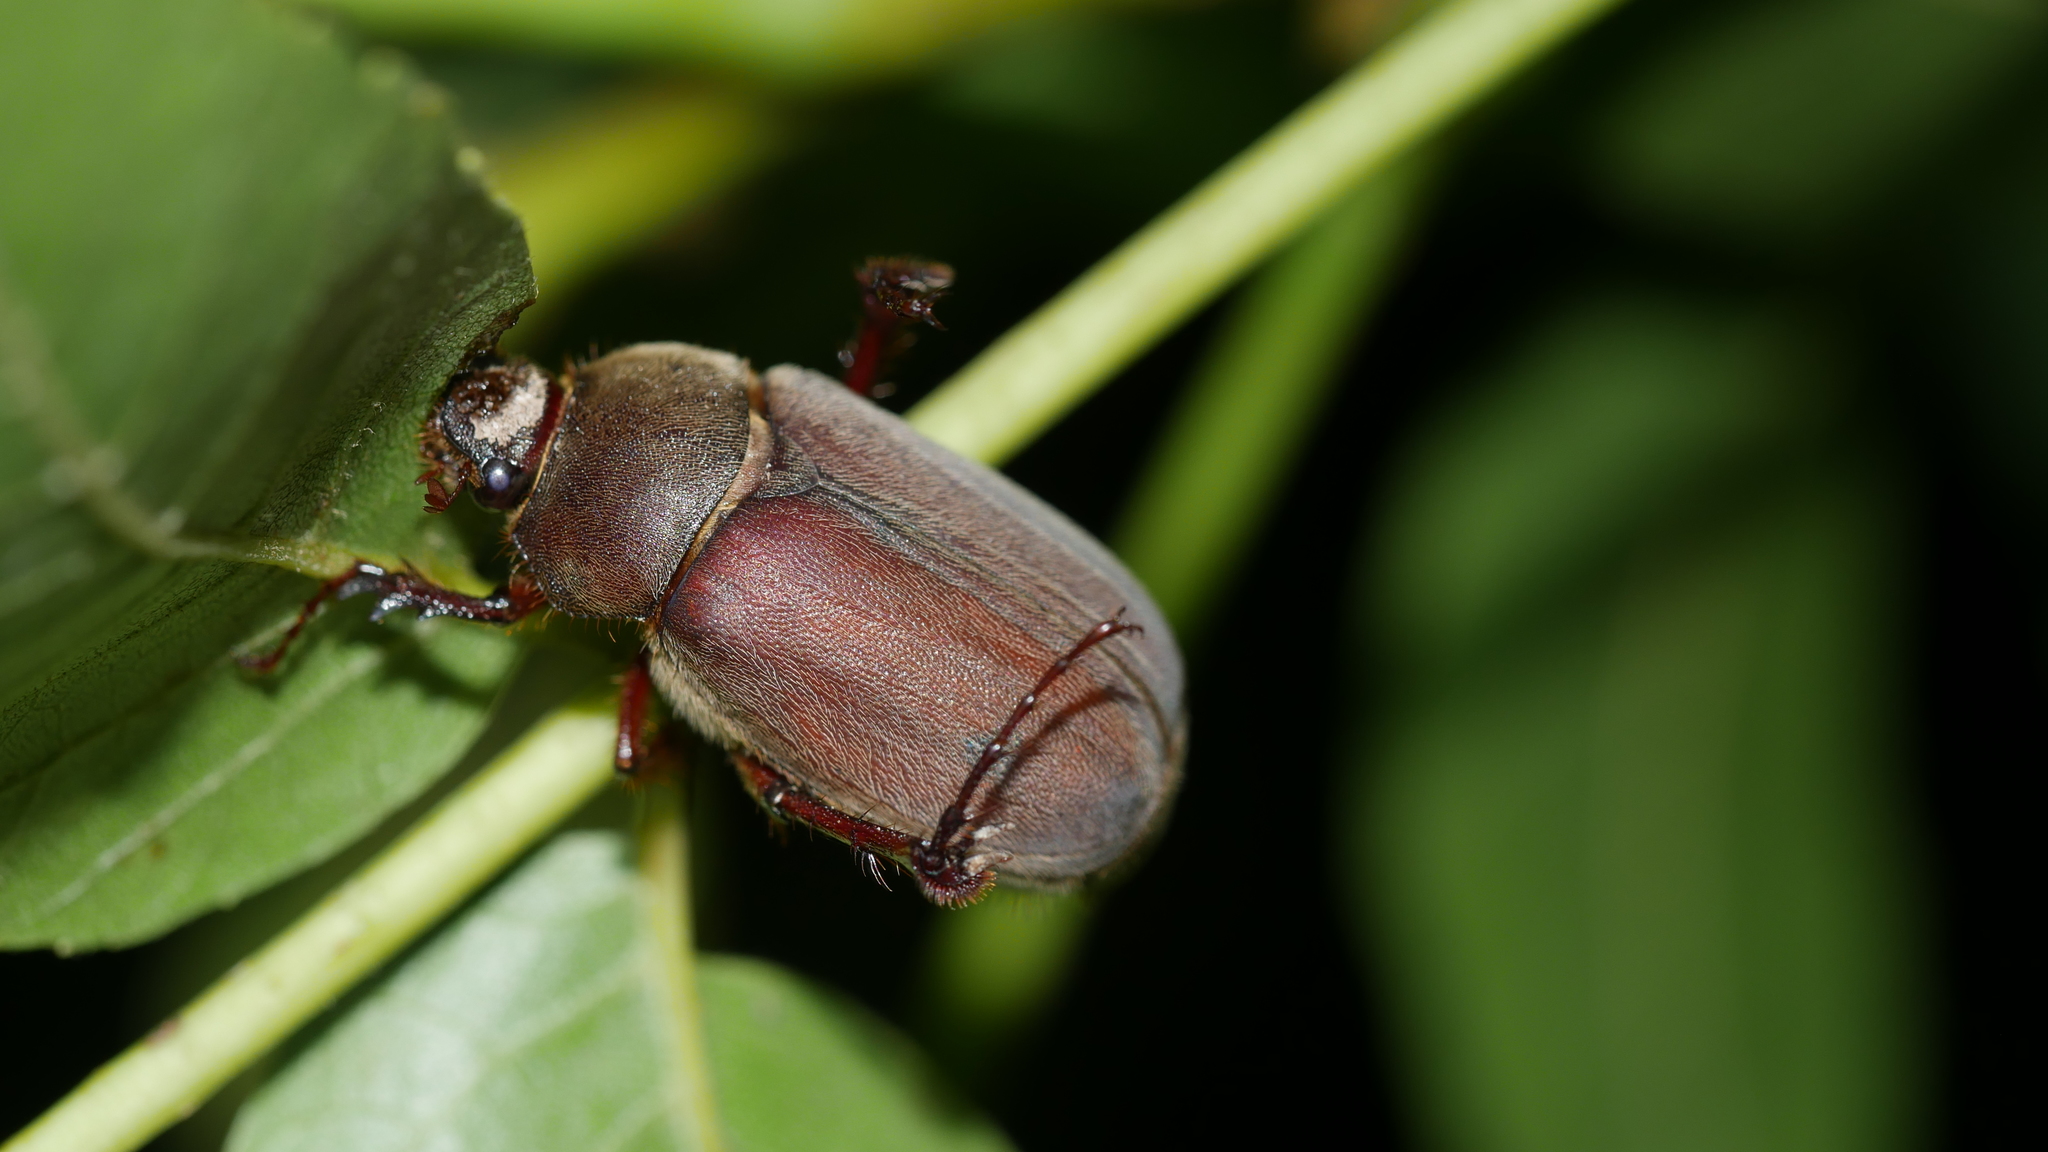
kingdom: Animalia
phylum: Arthropoda
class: Insecta
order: Coleoptera
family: Scarabaeidae
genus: Phyllophaga
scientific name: Phyllophaga
